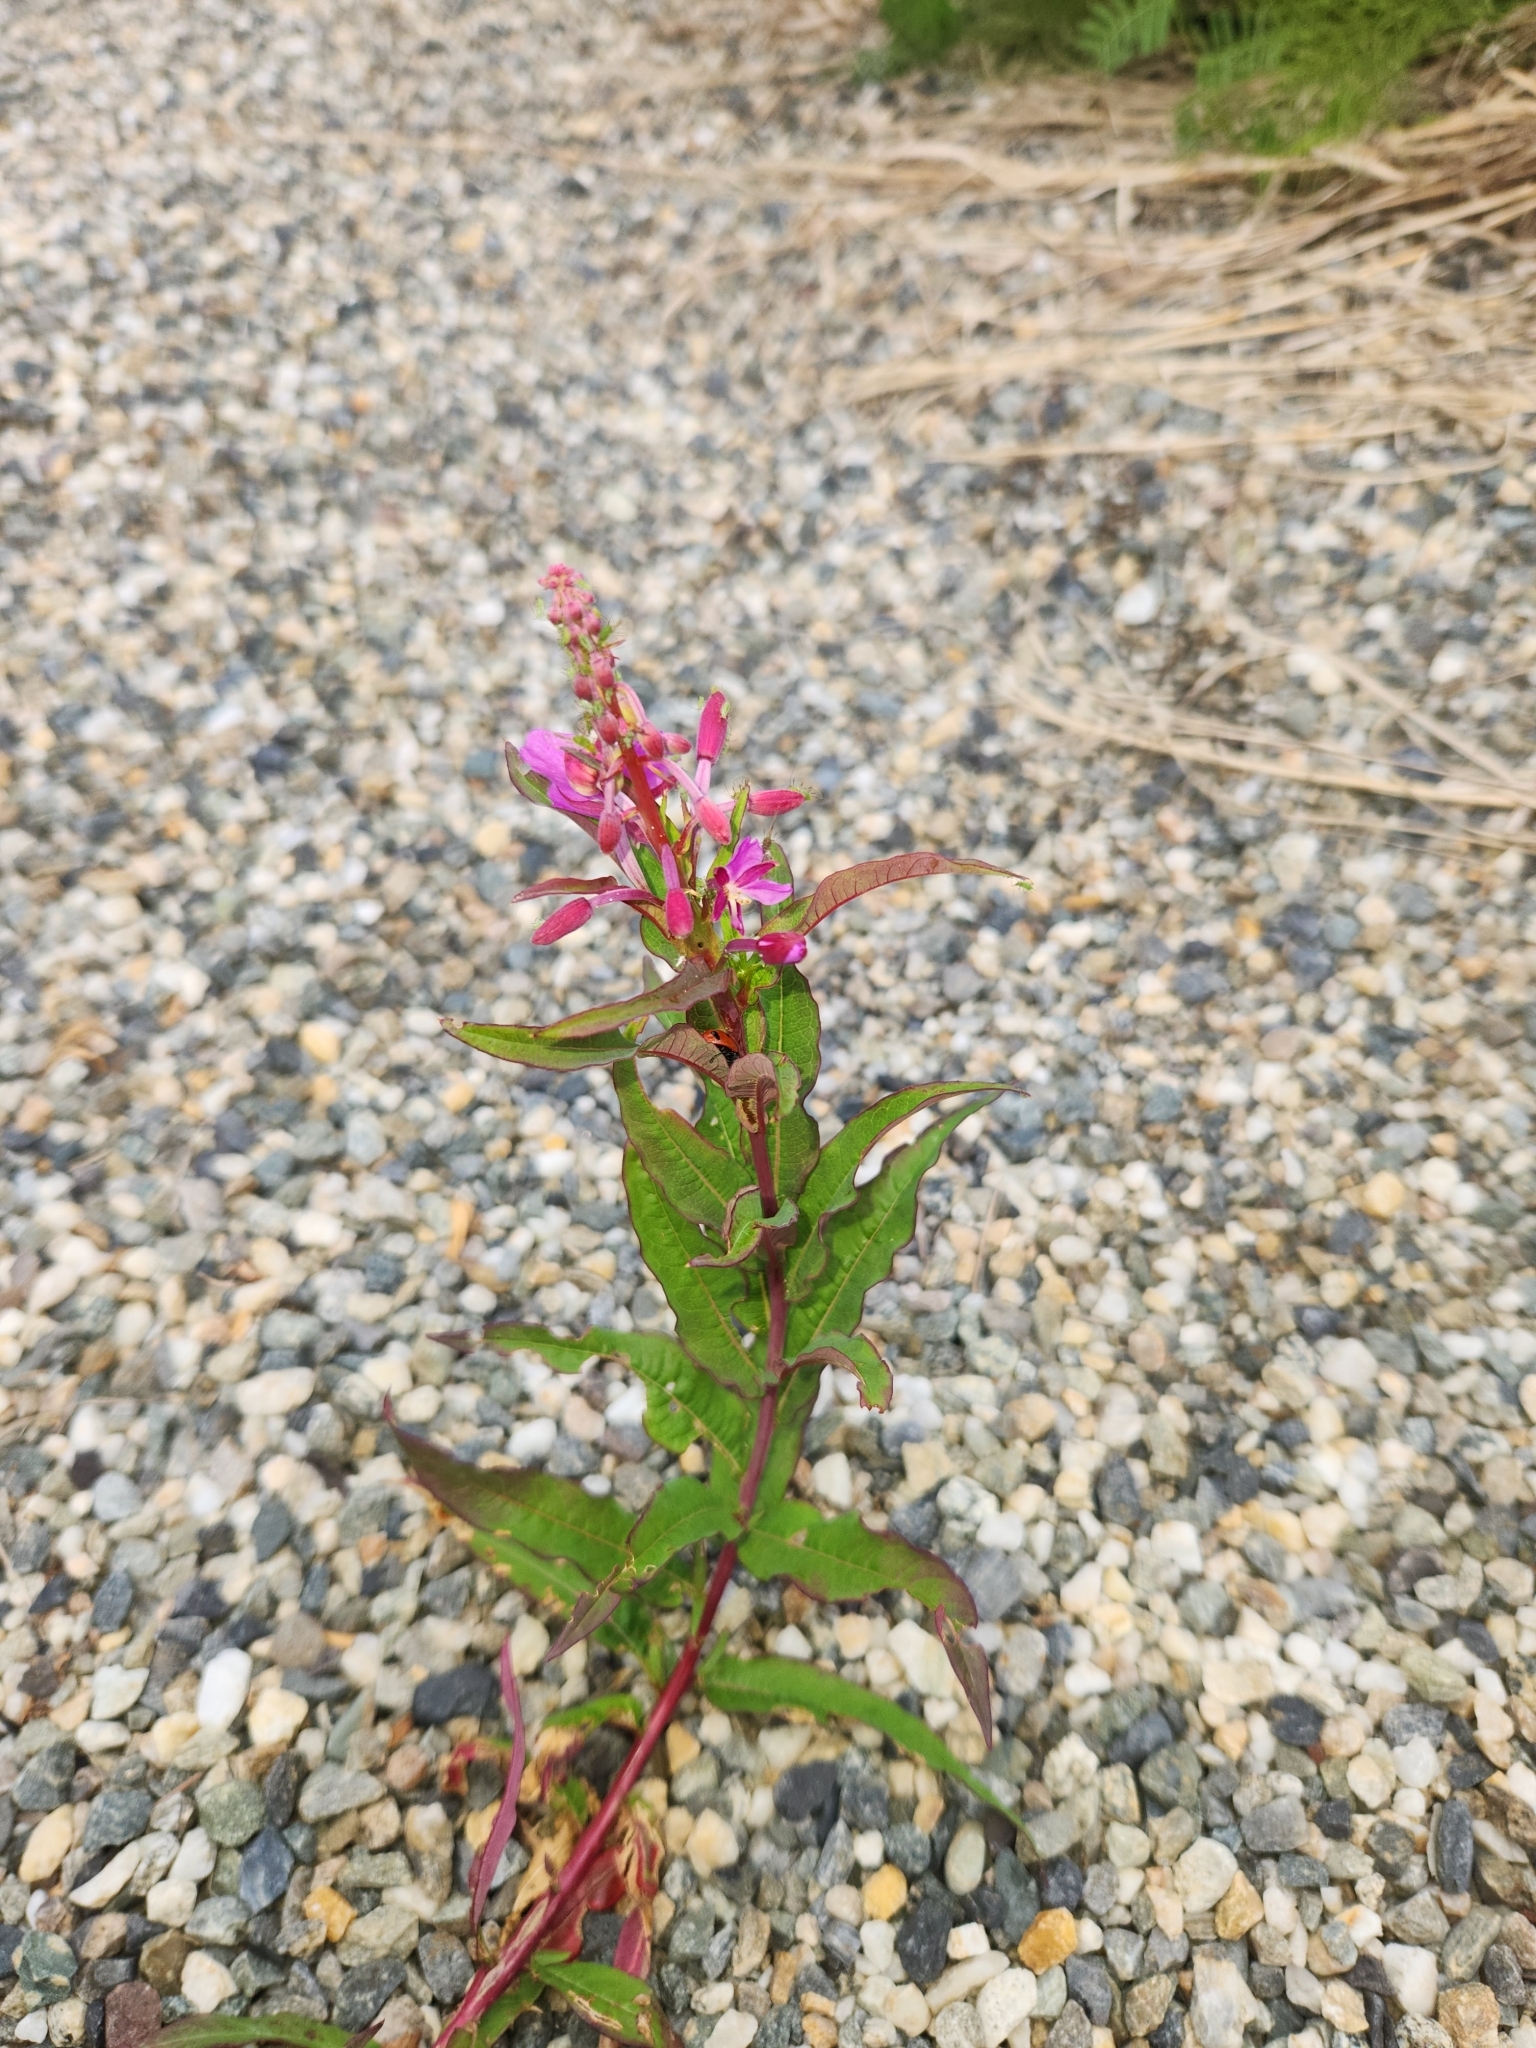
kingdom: Plantae
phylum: Tracheophyta
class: Magnoliopsida
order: Myrtales
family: Onagraceae
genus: Chamaenerion
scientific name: Chamaenerion angustifolium
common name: Fireweed
